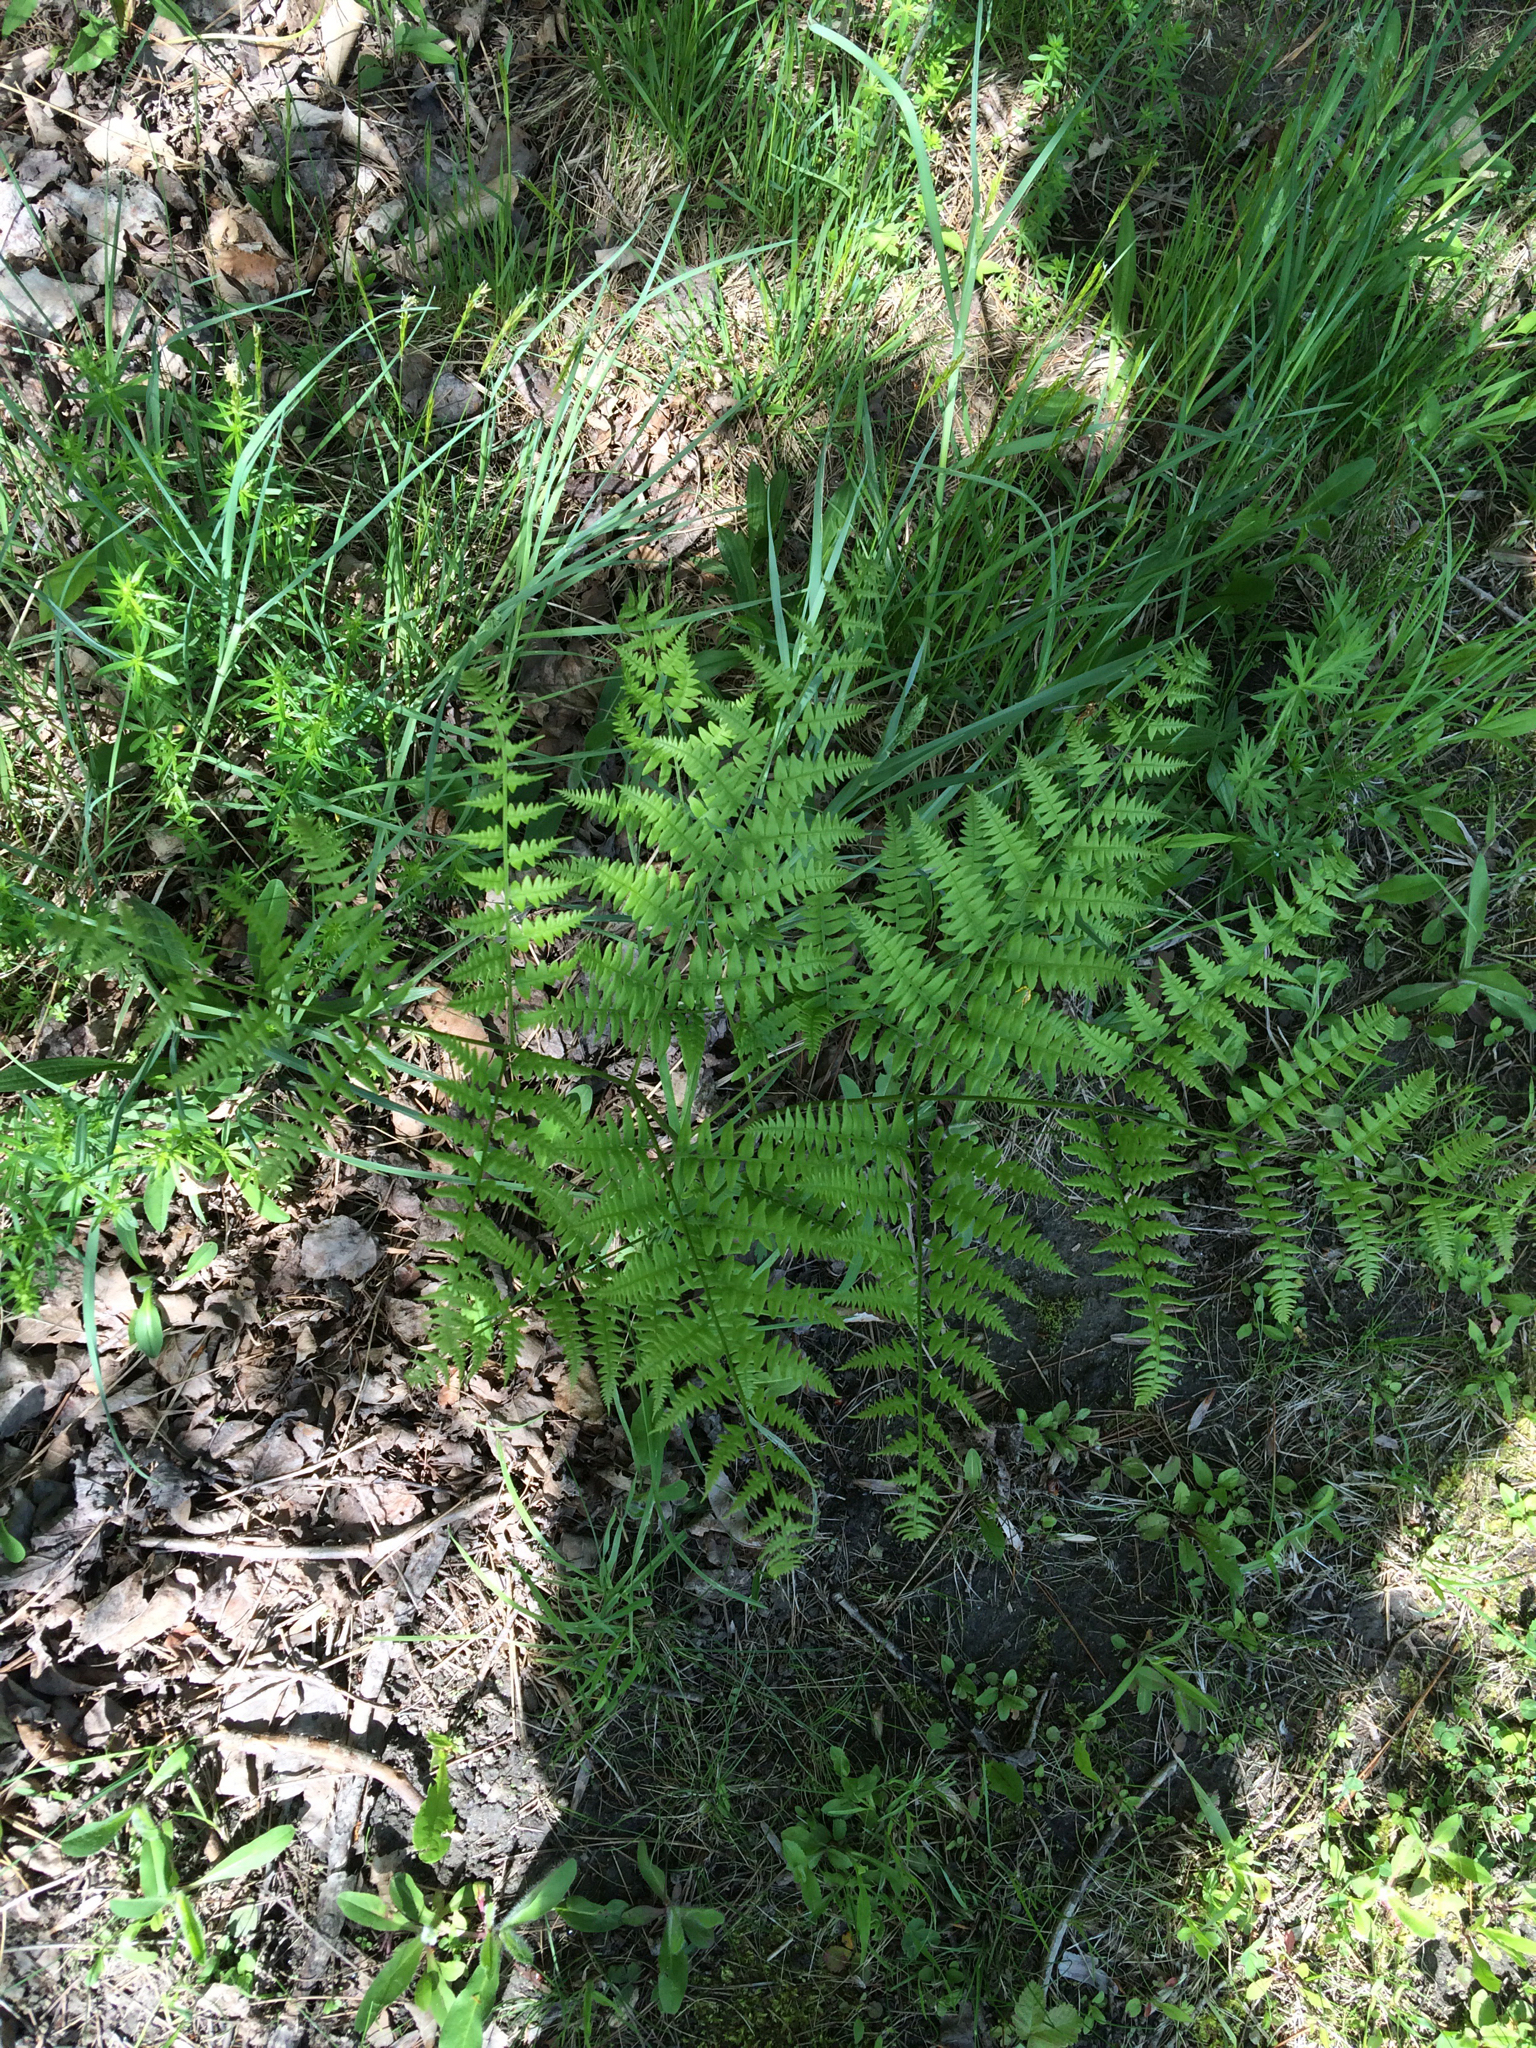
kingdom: Plantae
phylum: Tracheophyta
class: Polypodiopsida
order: Polypodiales
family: Dennstaedtiaceae
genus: Pteridium
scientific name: Pteridium aquilinum
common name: Bracken
